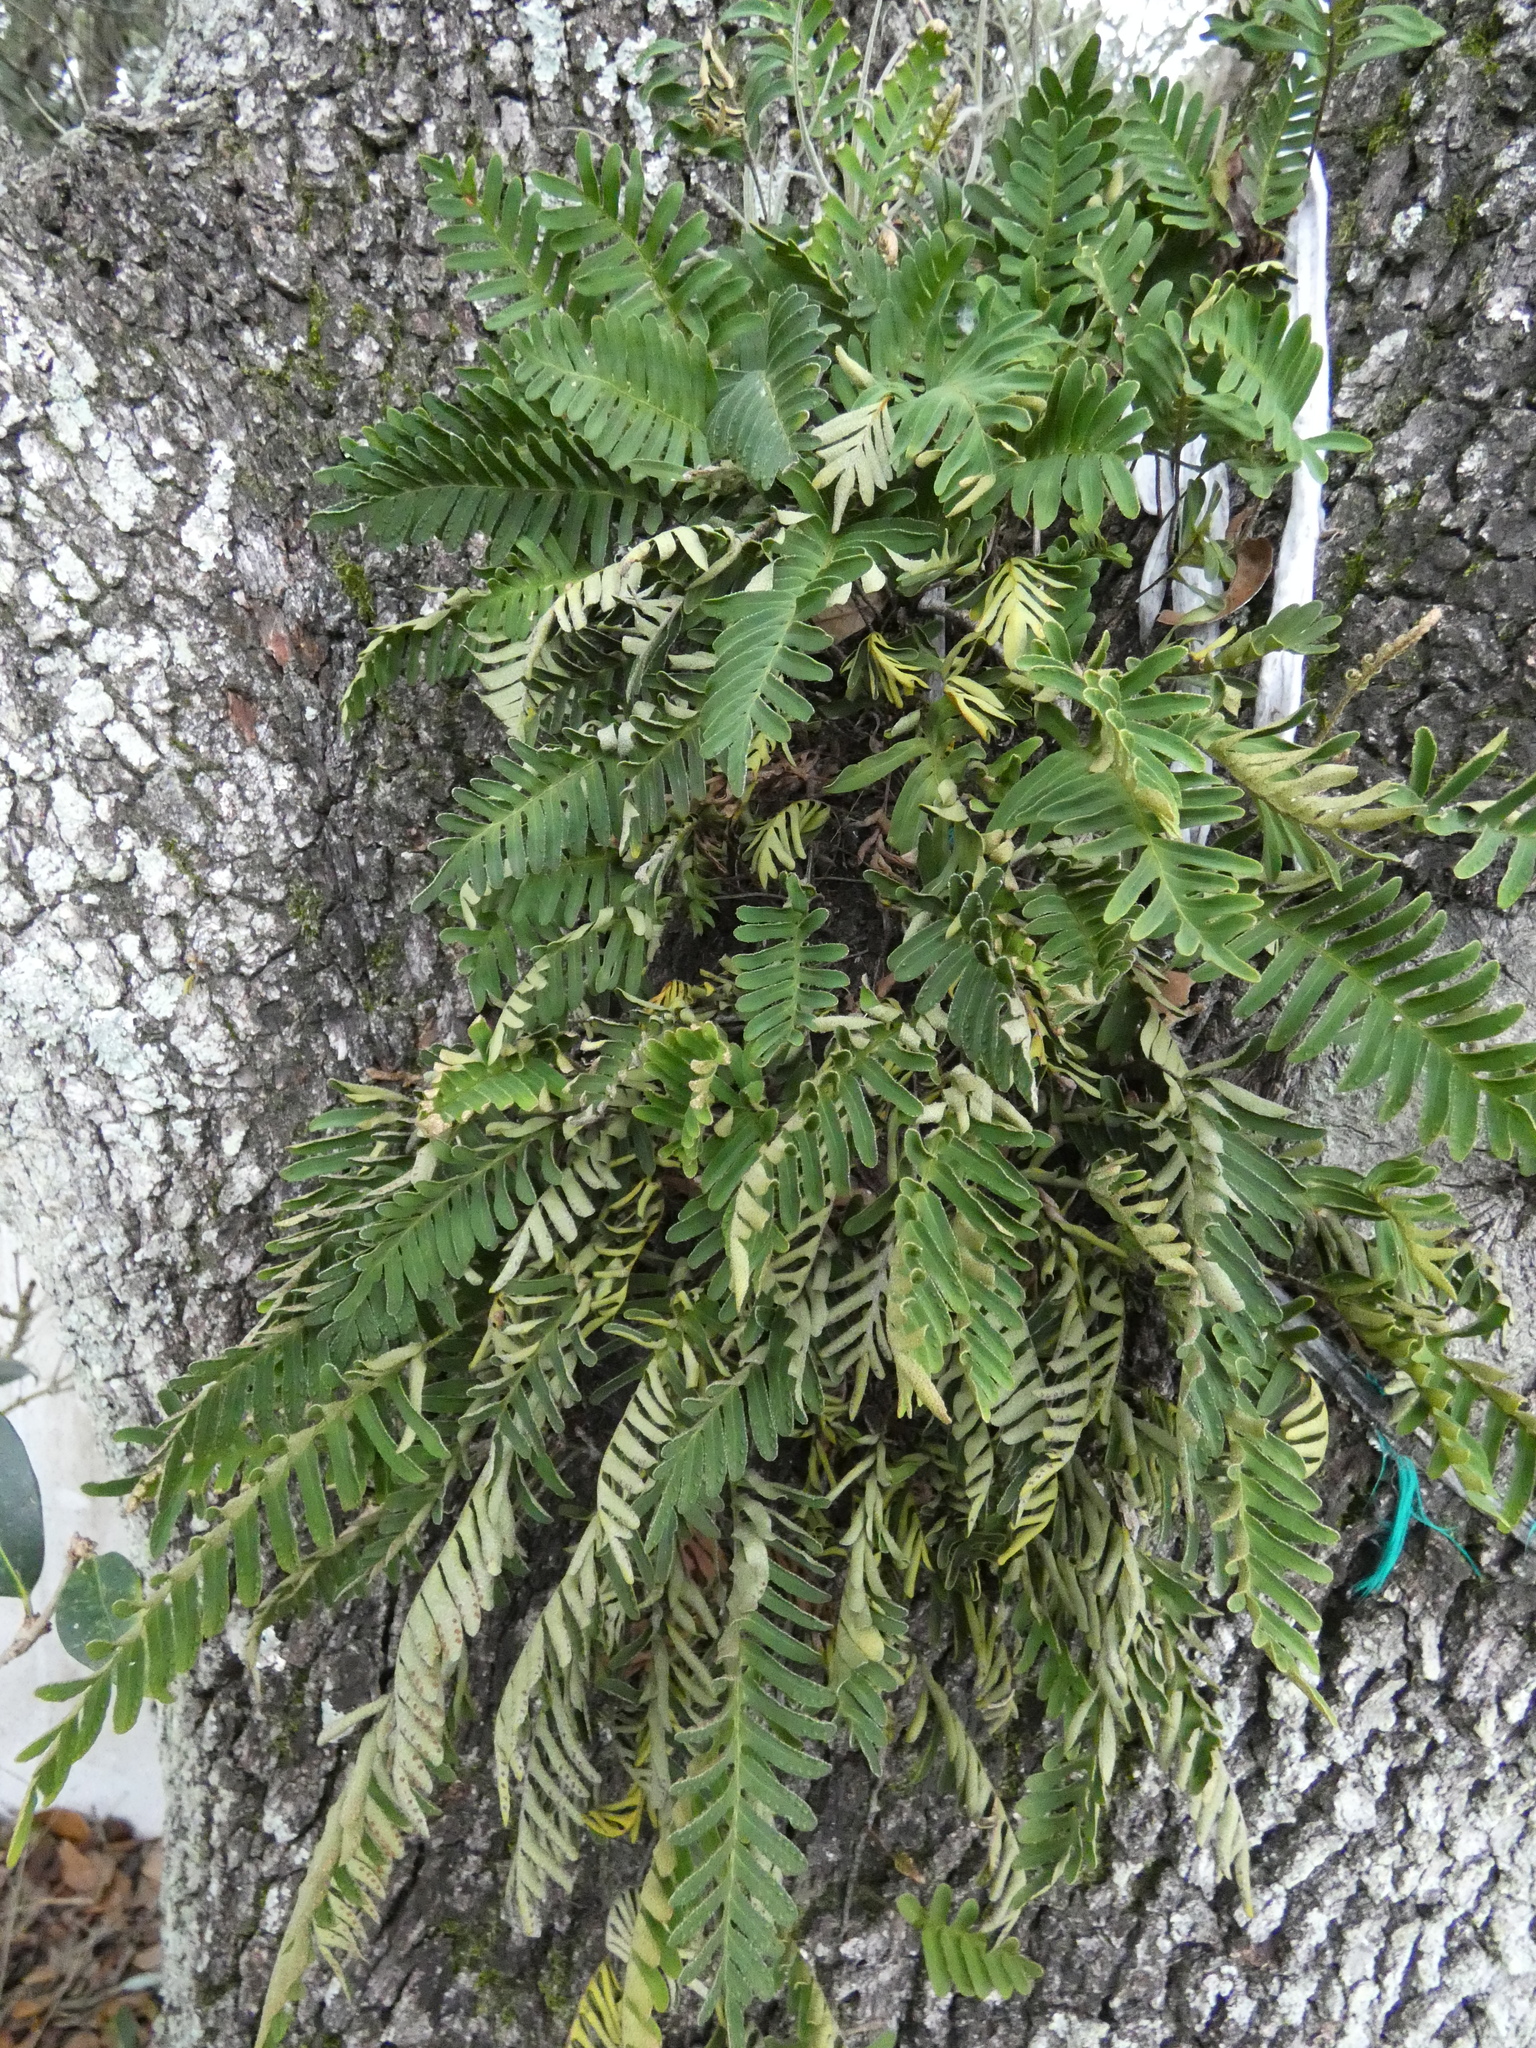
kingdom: Plantae
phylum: Tracheophyta
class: Polypodiopsida
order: Polypodiales
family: Polypodiaceae
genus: Pleopeltis
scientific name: Pleopeltis michauxiana
